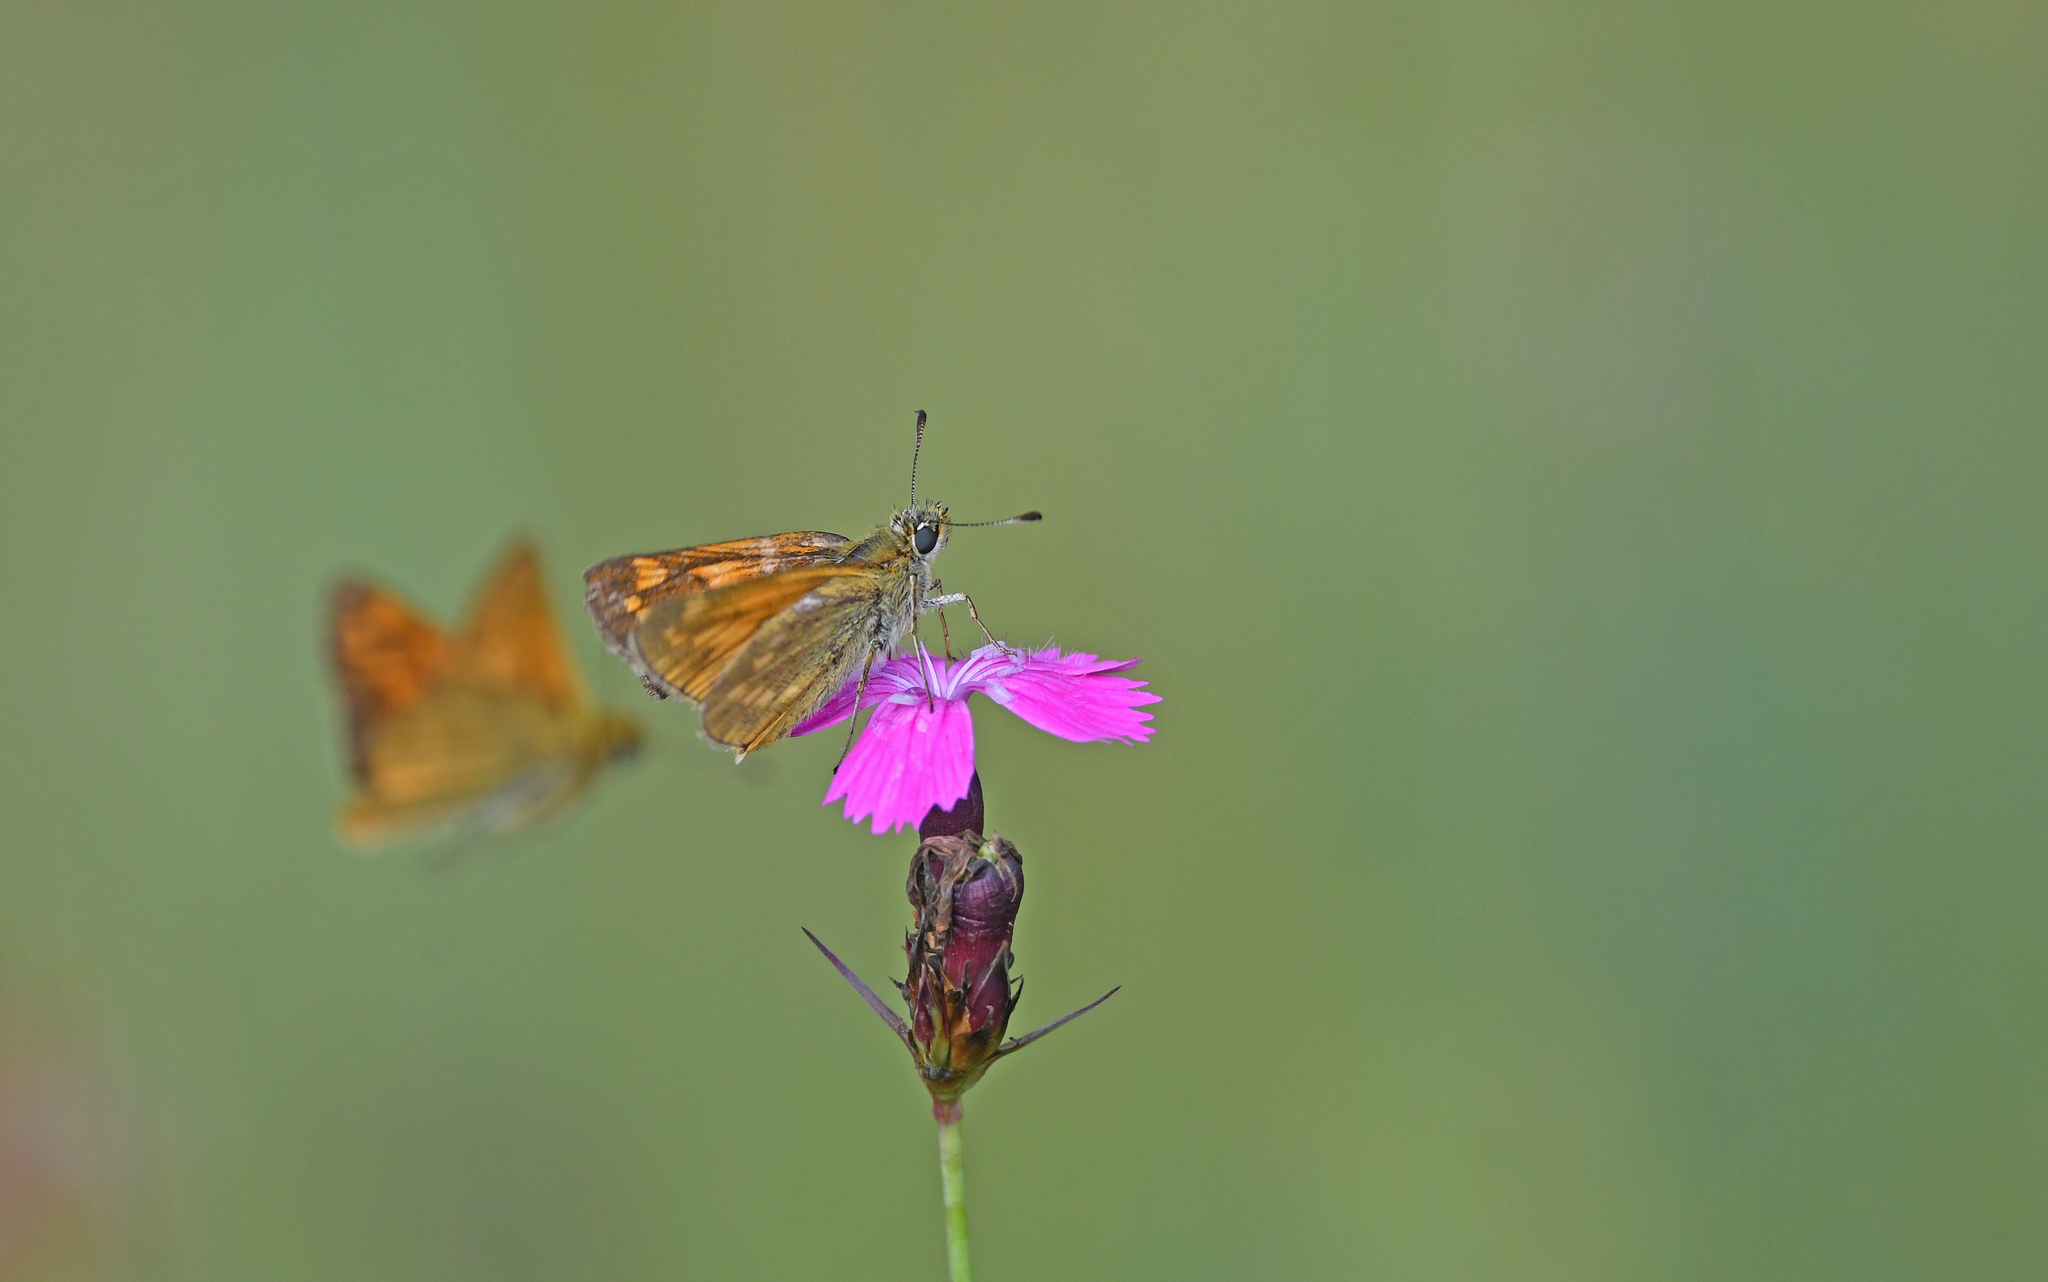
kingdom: Animalia
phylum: Arthropoda
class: Insecta
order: Lepidoptera
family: Hesperiidae
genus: Ochlodes
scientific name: Ochlodes venata
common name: Large skipper
